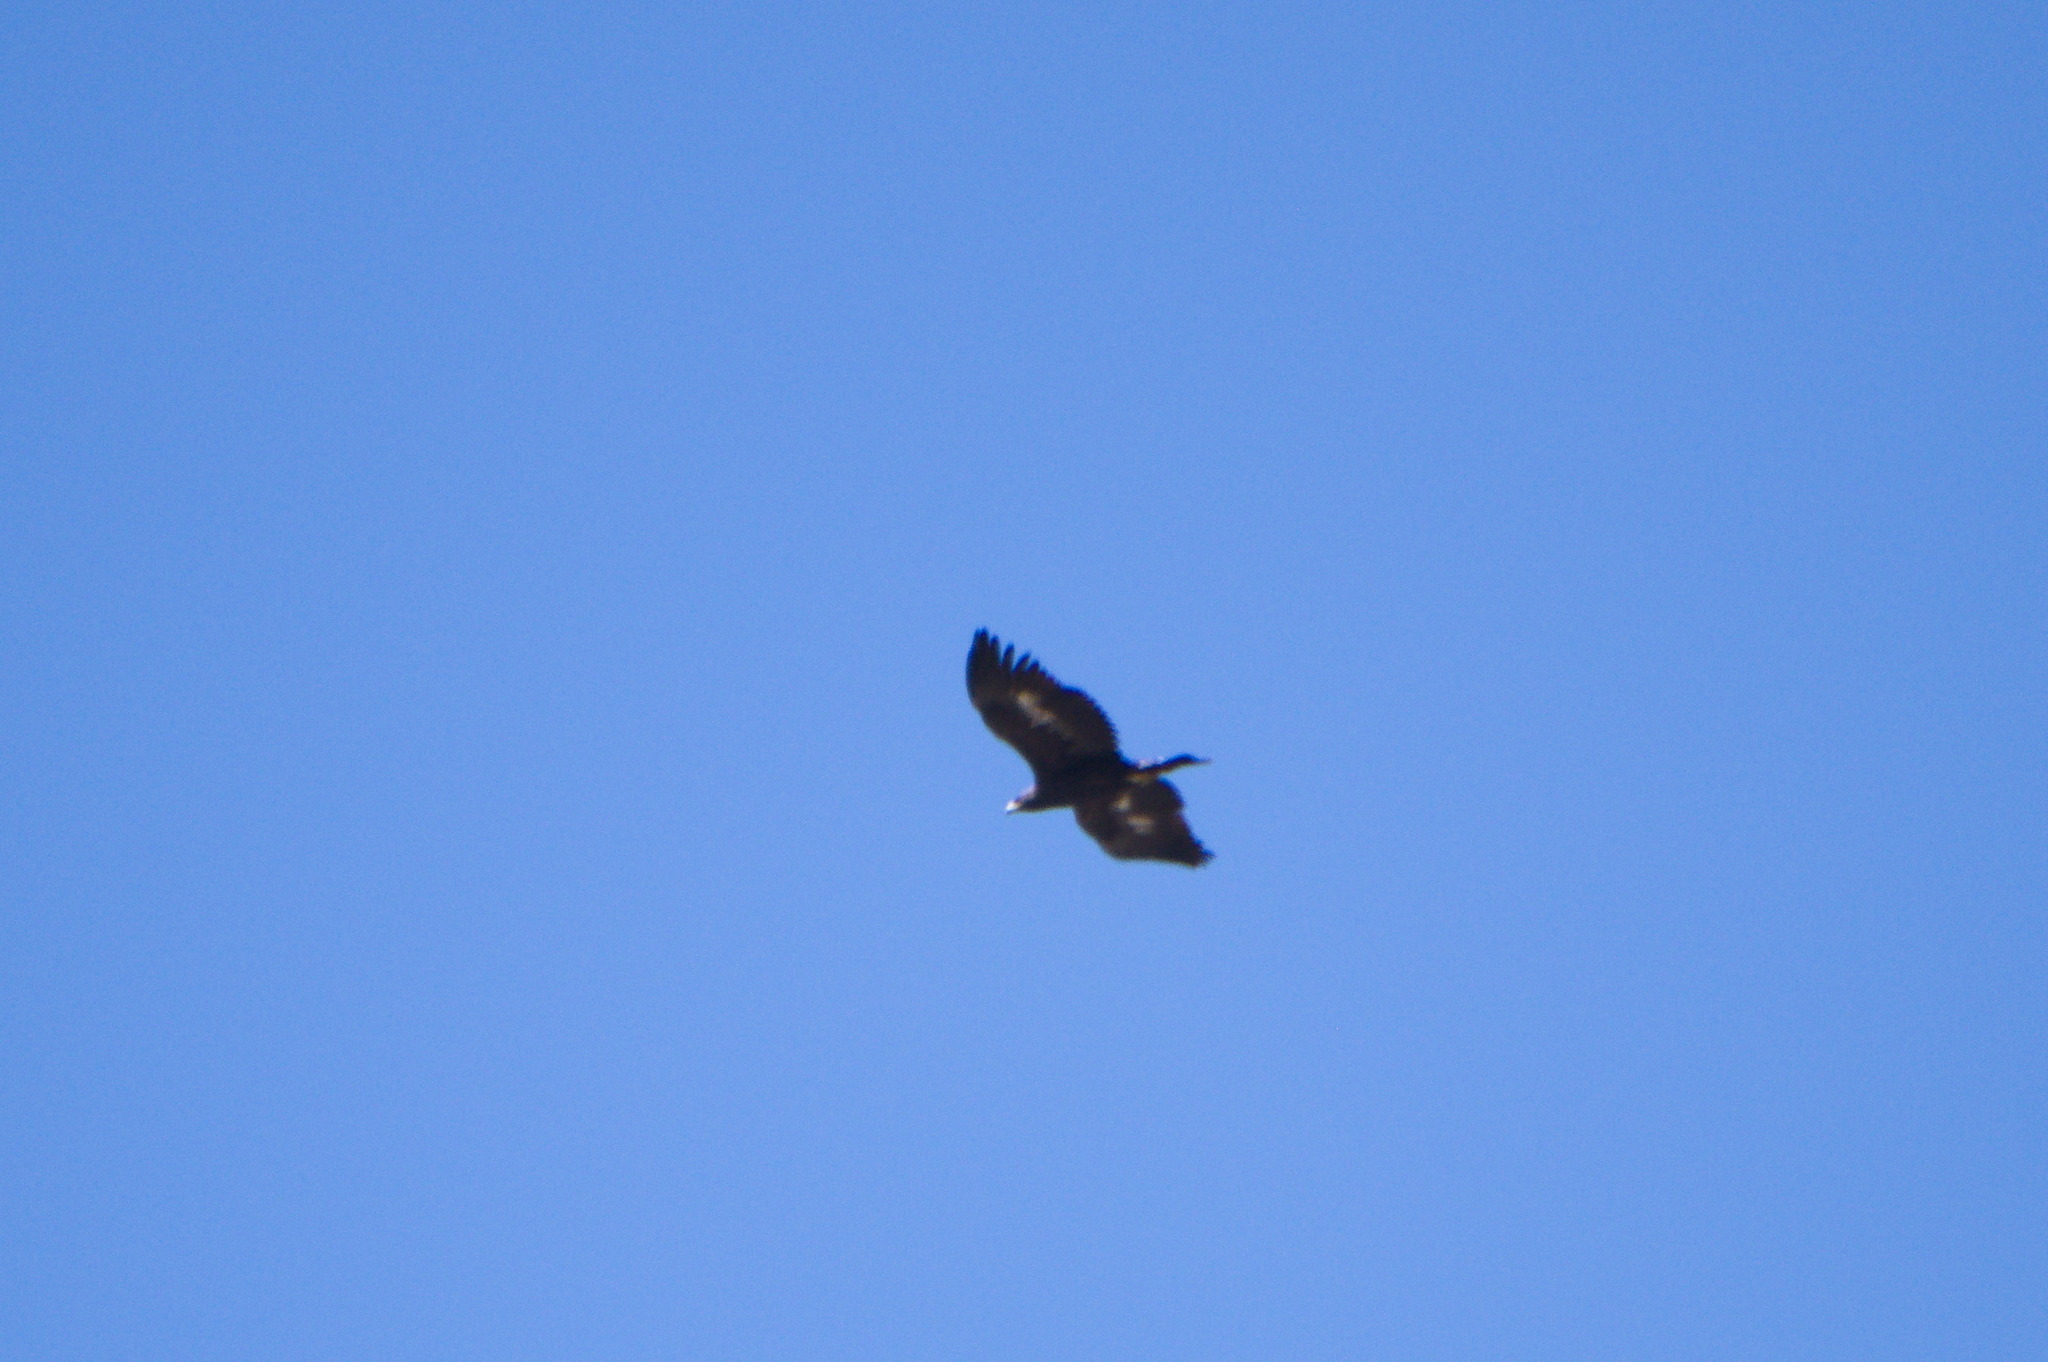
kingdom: Animalia
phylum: Chordata
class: Aves
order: Accipitriformes
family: Accipitridae
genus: Aquila
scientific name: Aquila chrysaetos
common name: Golden eagle
